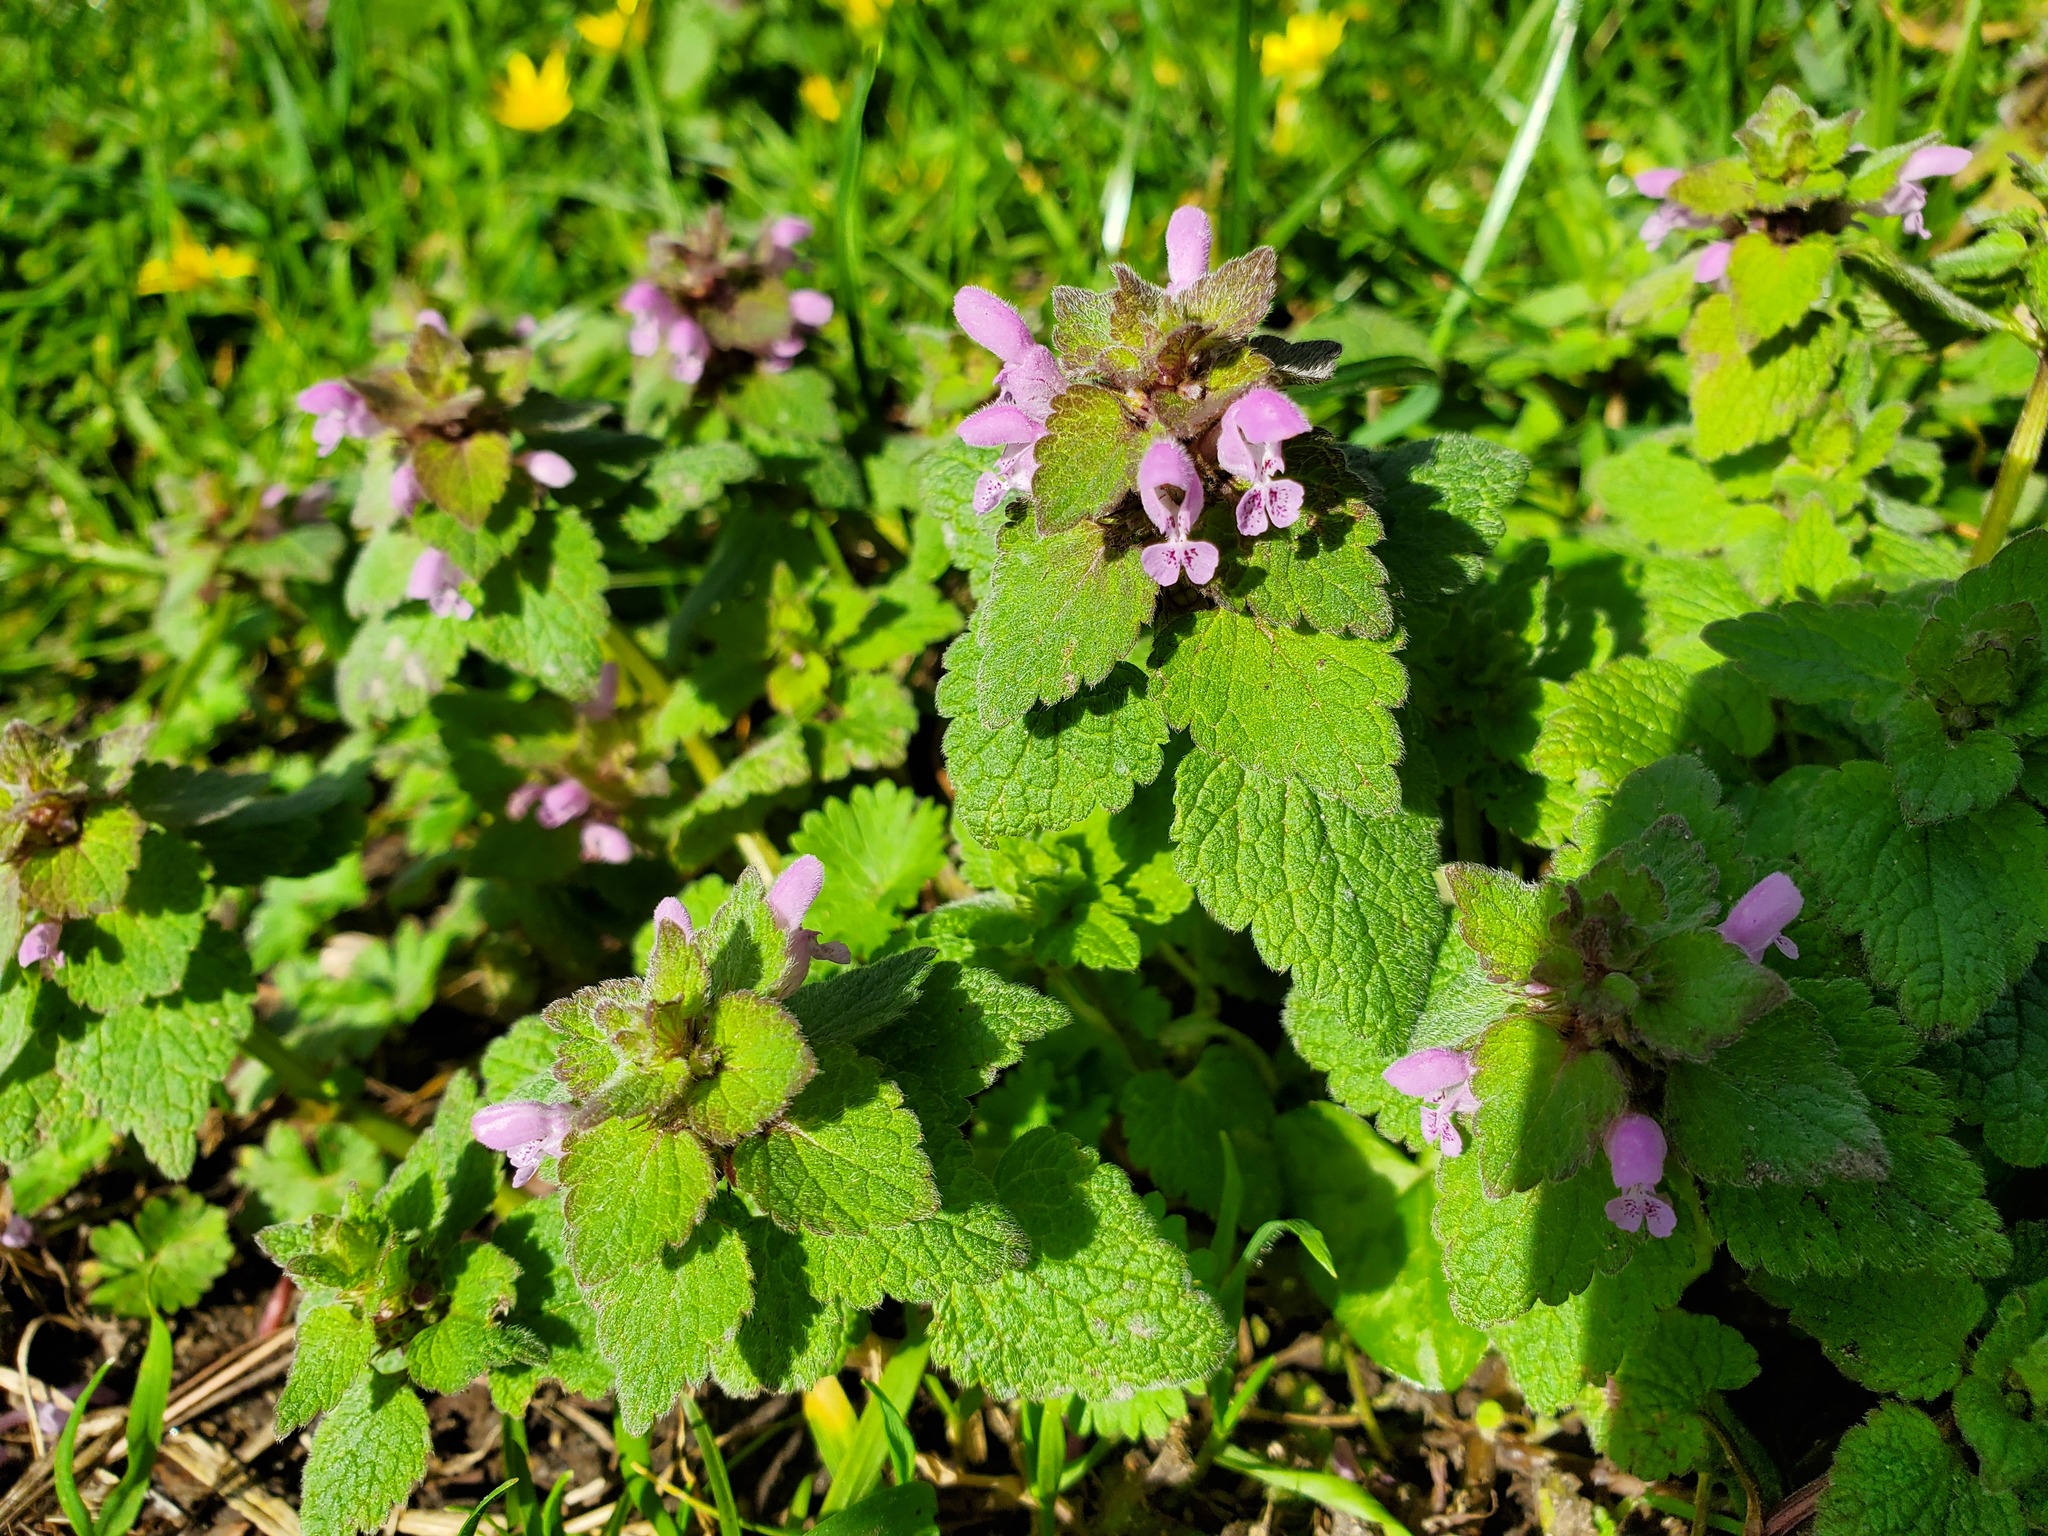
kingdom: Plantae
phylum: Tracheophyta
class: Magnoliopsida
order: Lamiales
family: Lamiaceae
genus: Lamium
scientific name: Lamium purpureum
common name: Red dead-nettle
